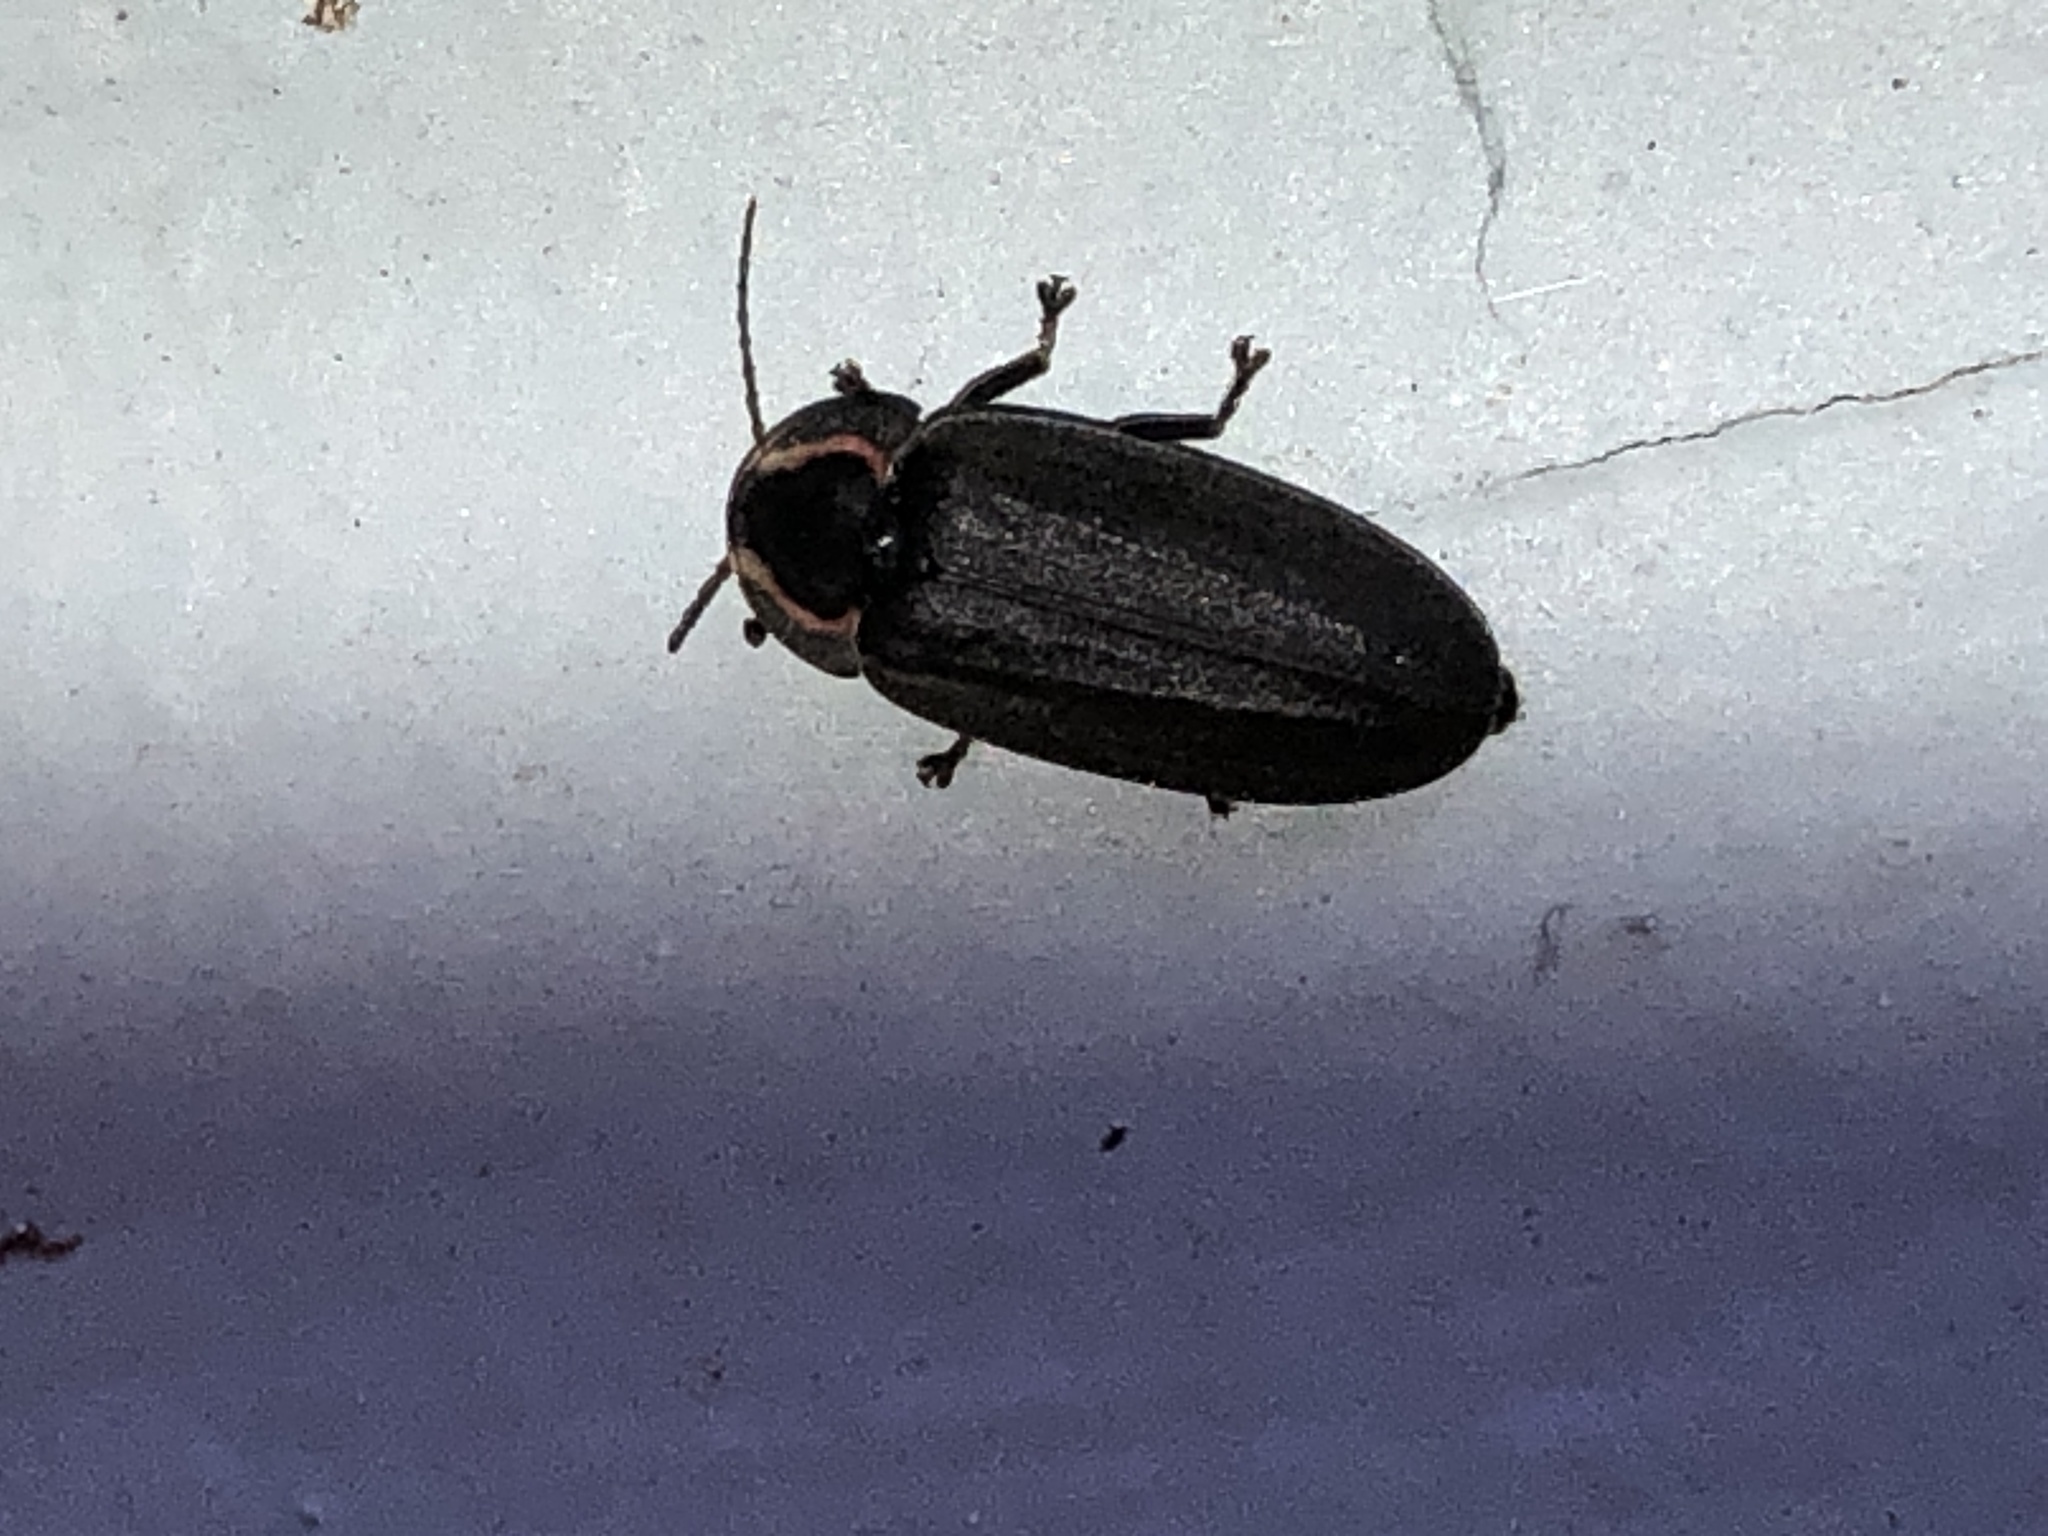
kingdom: Animalia
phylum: Arthropoda
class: Insecta
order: Coleoptera
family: Lampyridae
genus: Photinus
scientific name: Photinus corrusca
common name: Winter firefly
